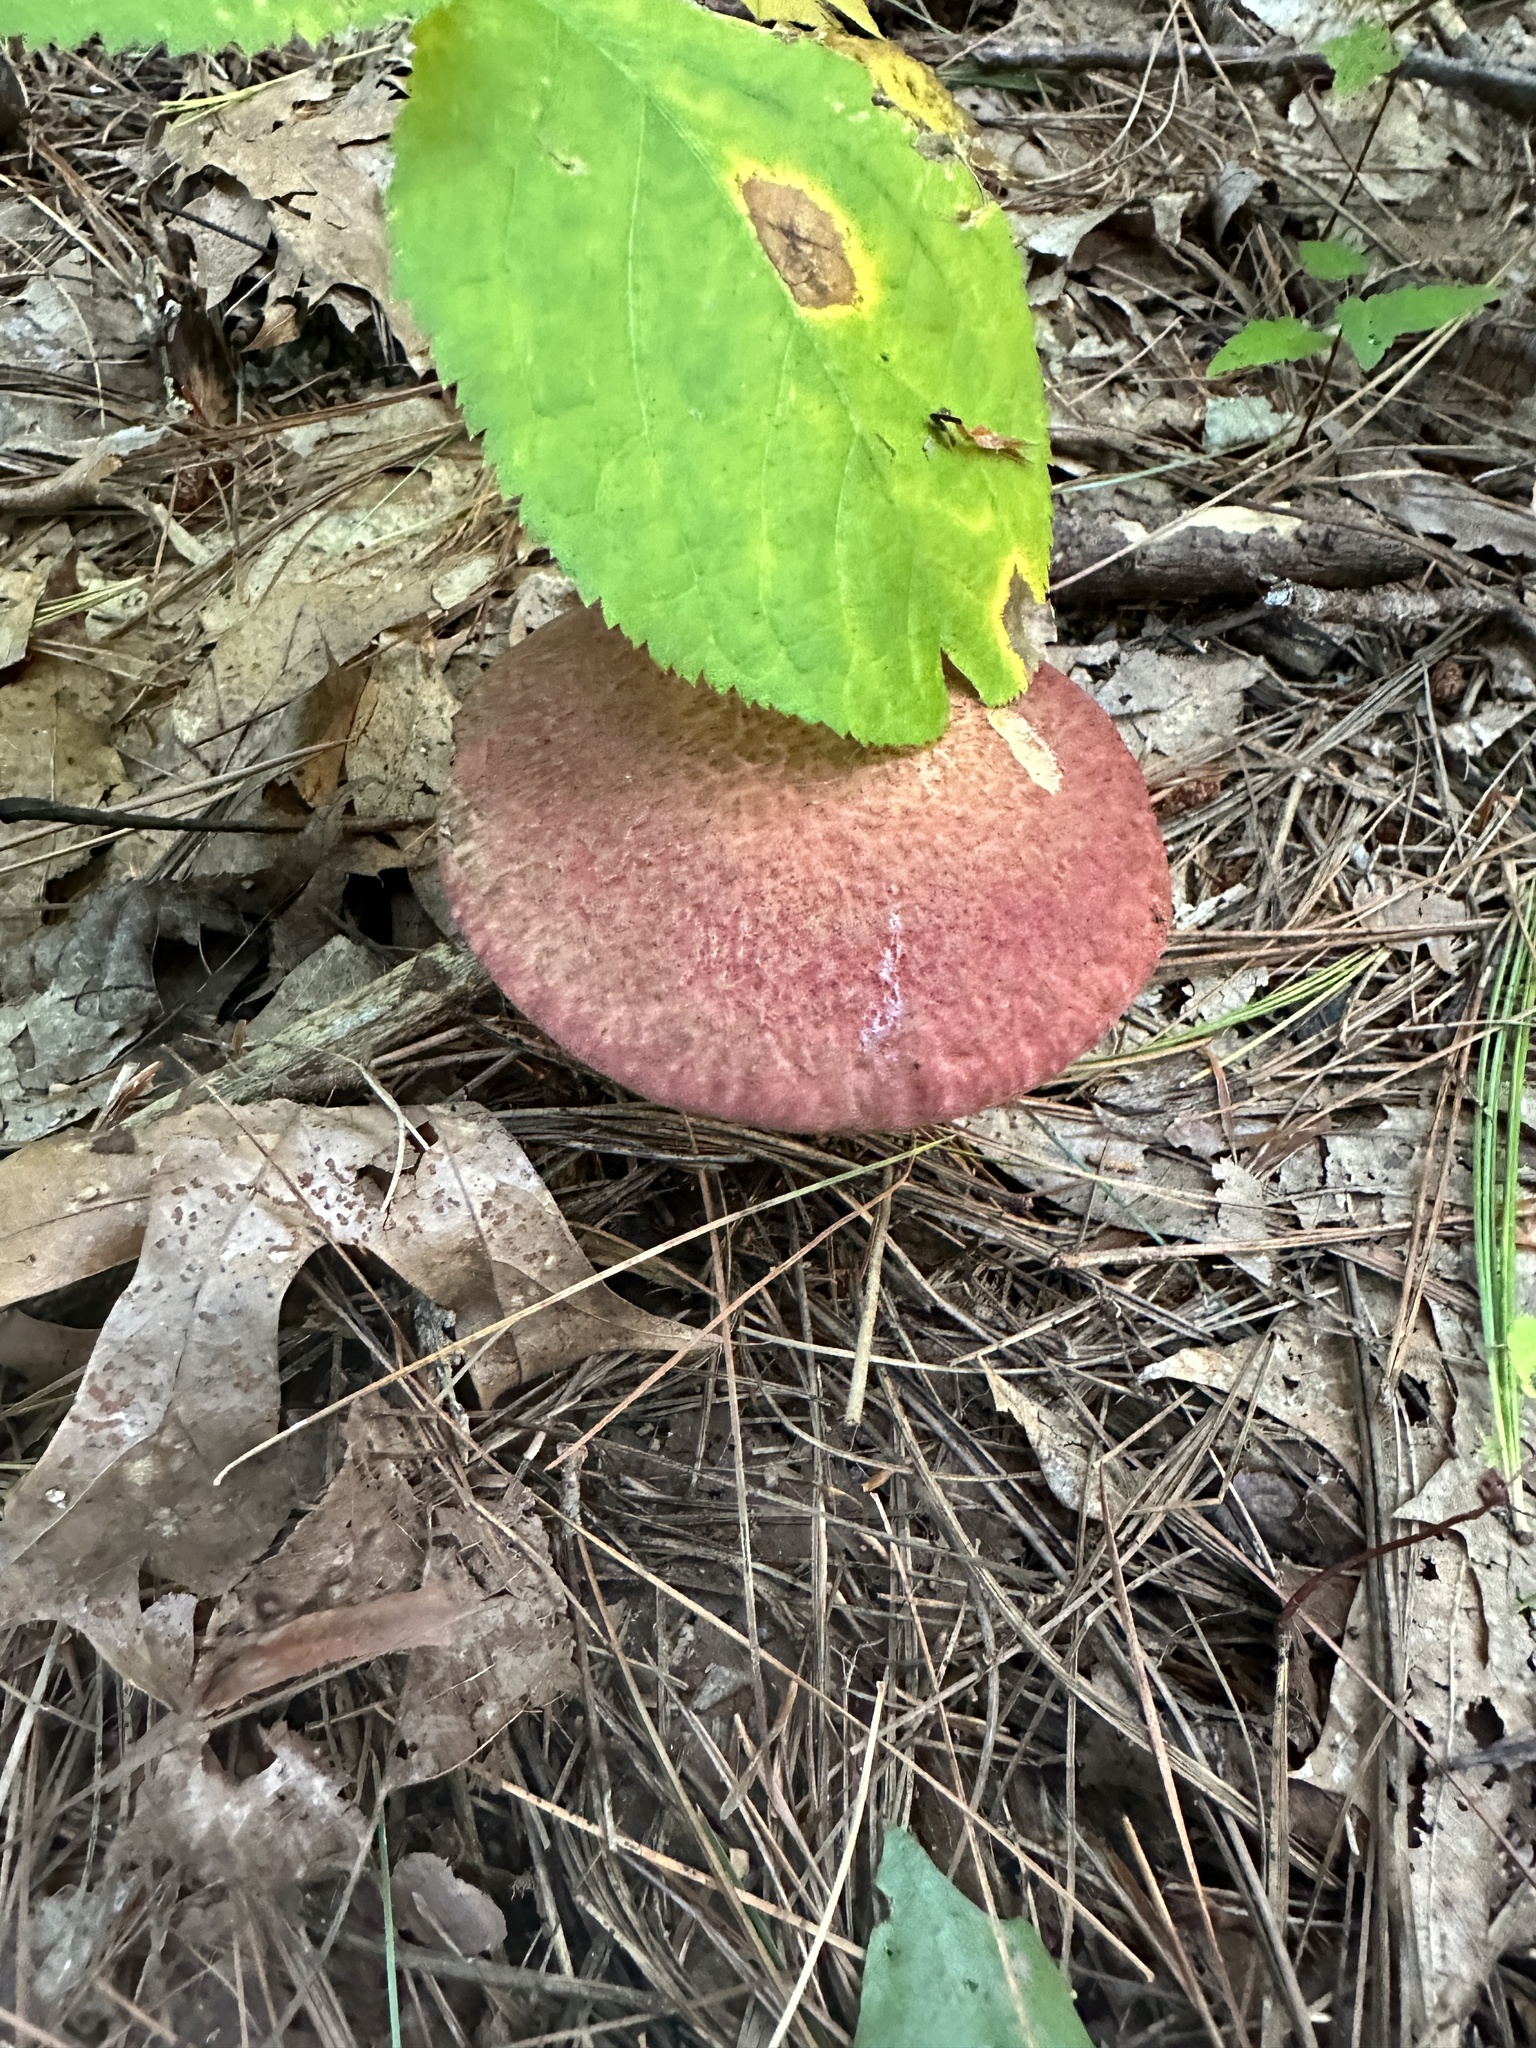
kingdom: Fungi
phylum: Basidiomycota
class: Agaricomycetes
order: Boletales
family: Suillaceae
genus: Suillus
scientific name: Suillus spraguei
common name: Painted suillus
